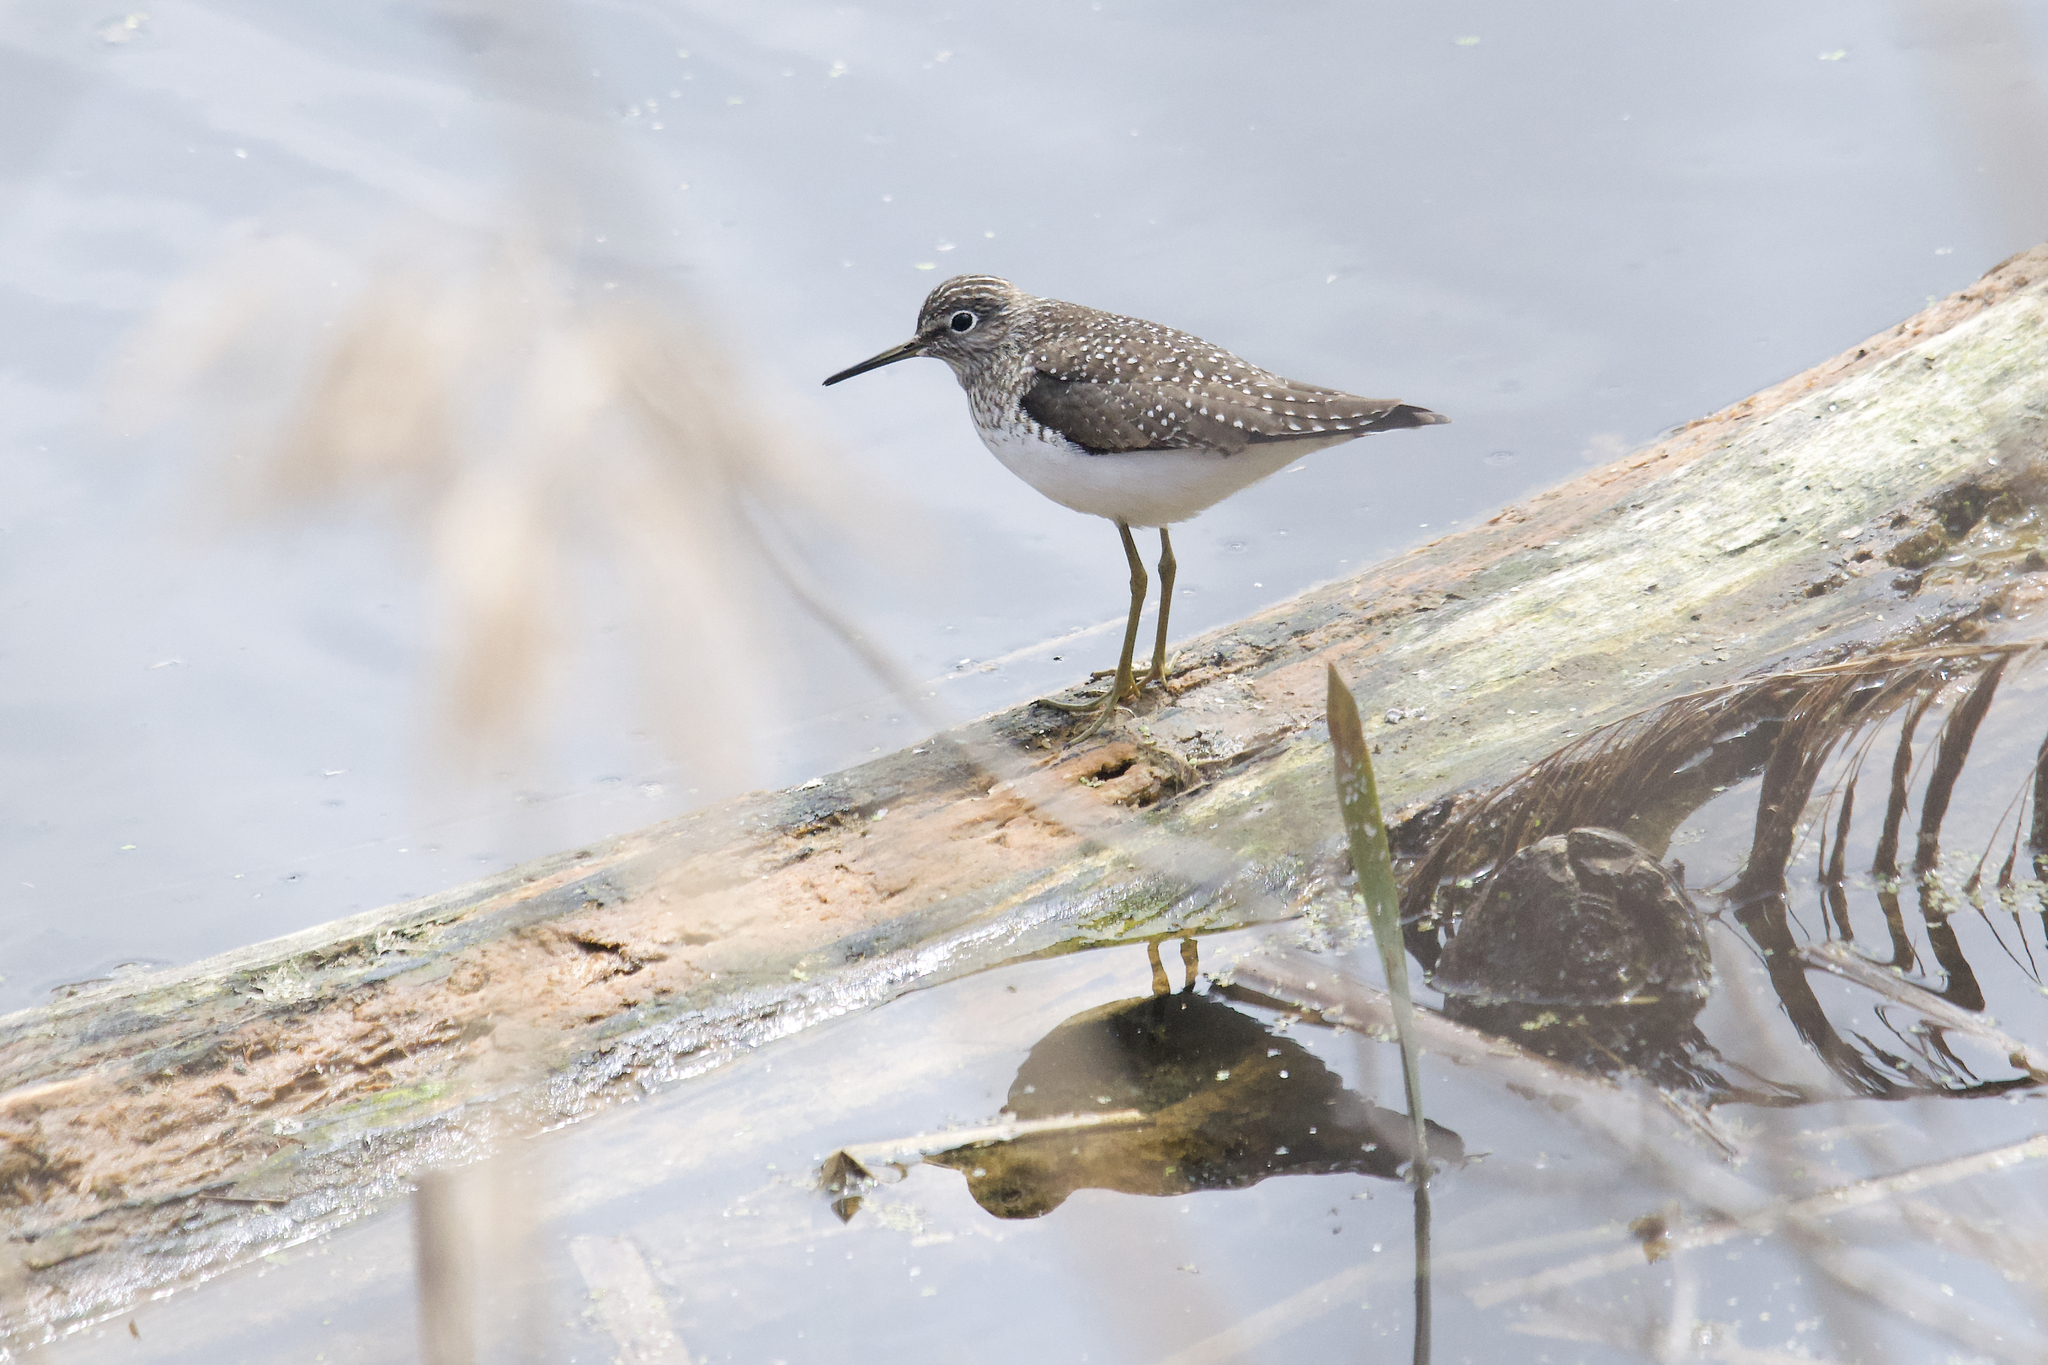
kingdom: Animalia
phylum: Chordata
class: Aves
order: Charadriiformes
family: Scolopacidae
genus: Tringa
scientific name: Tringa solitaria
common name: Solitary sandpiper
